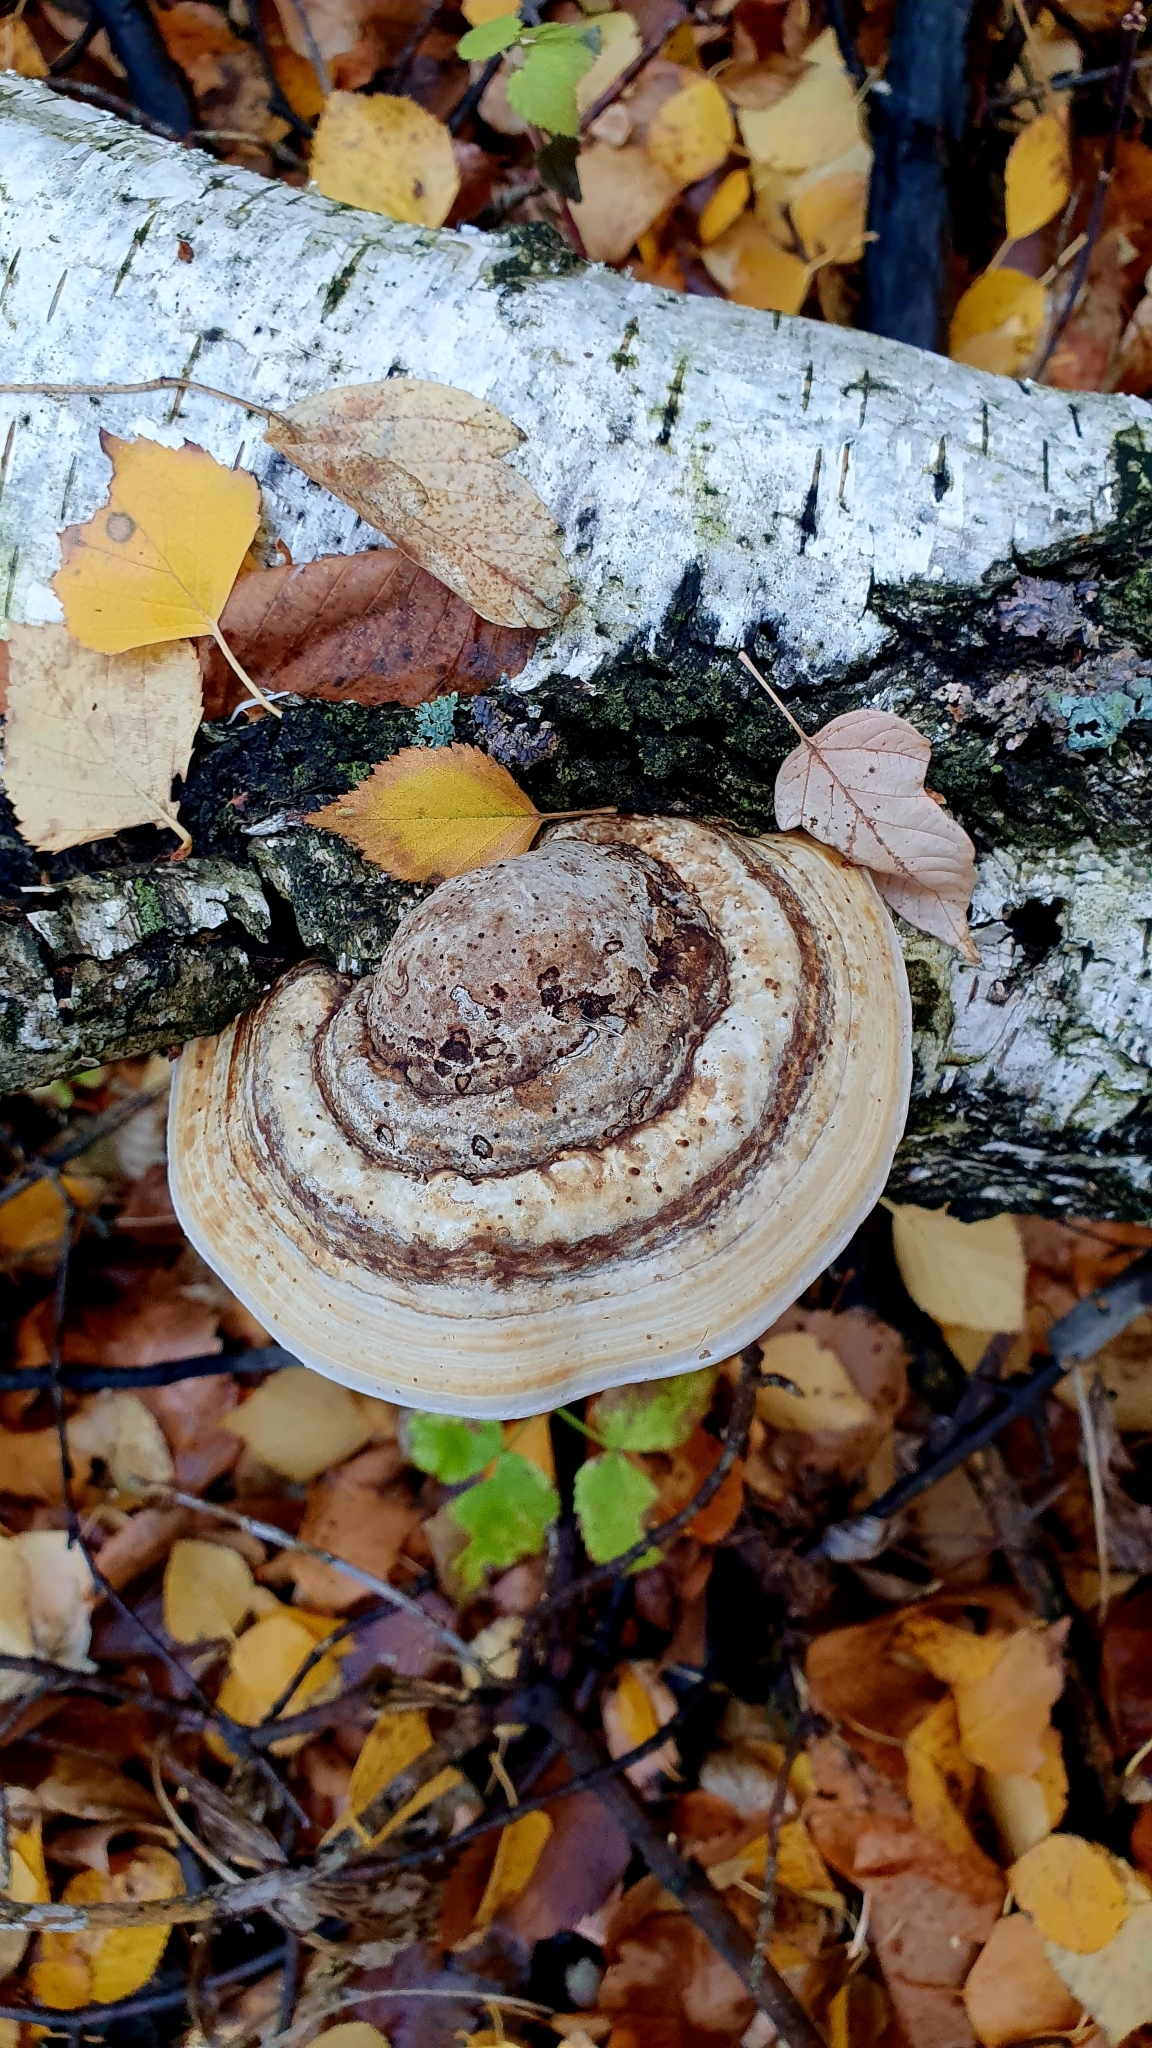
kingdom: Fungi
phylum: Basidiomycota
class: Agaricomycetes
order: Polyporales
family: Polyporaceae
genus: Fomes
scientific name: Fomes fomentarius
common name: Hoof fungus
